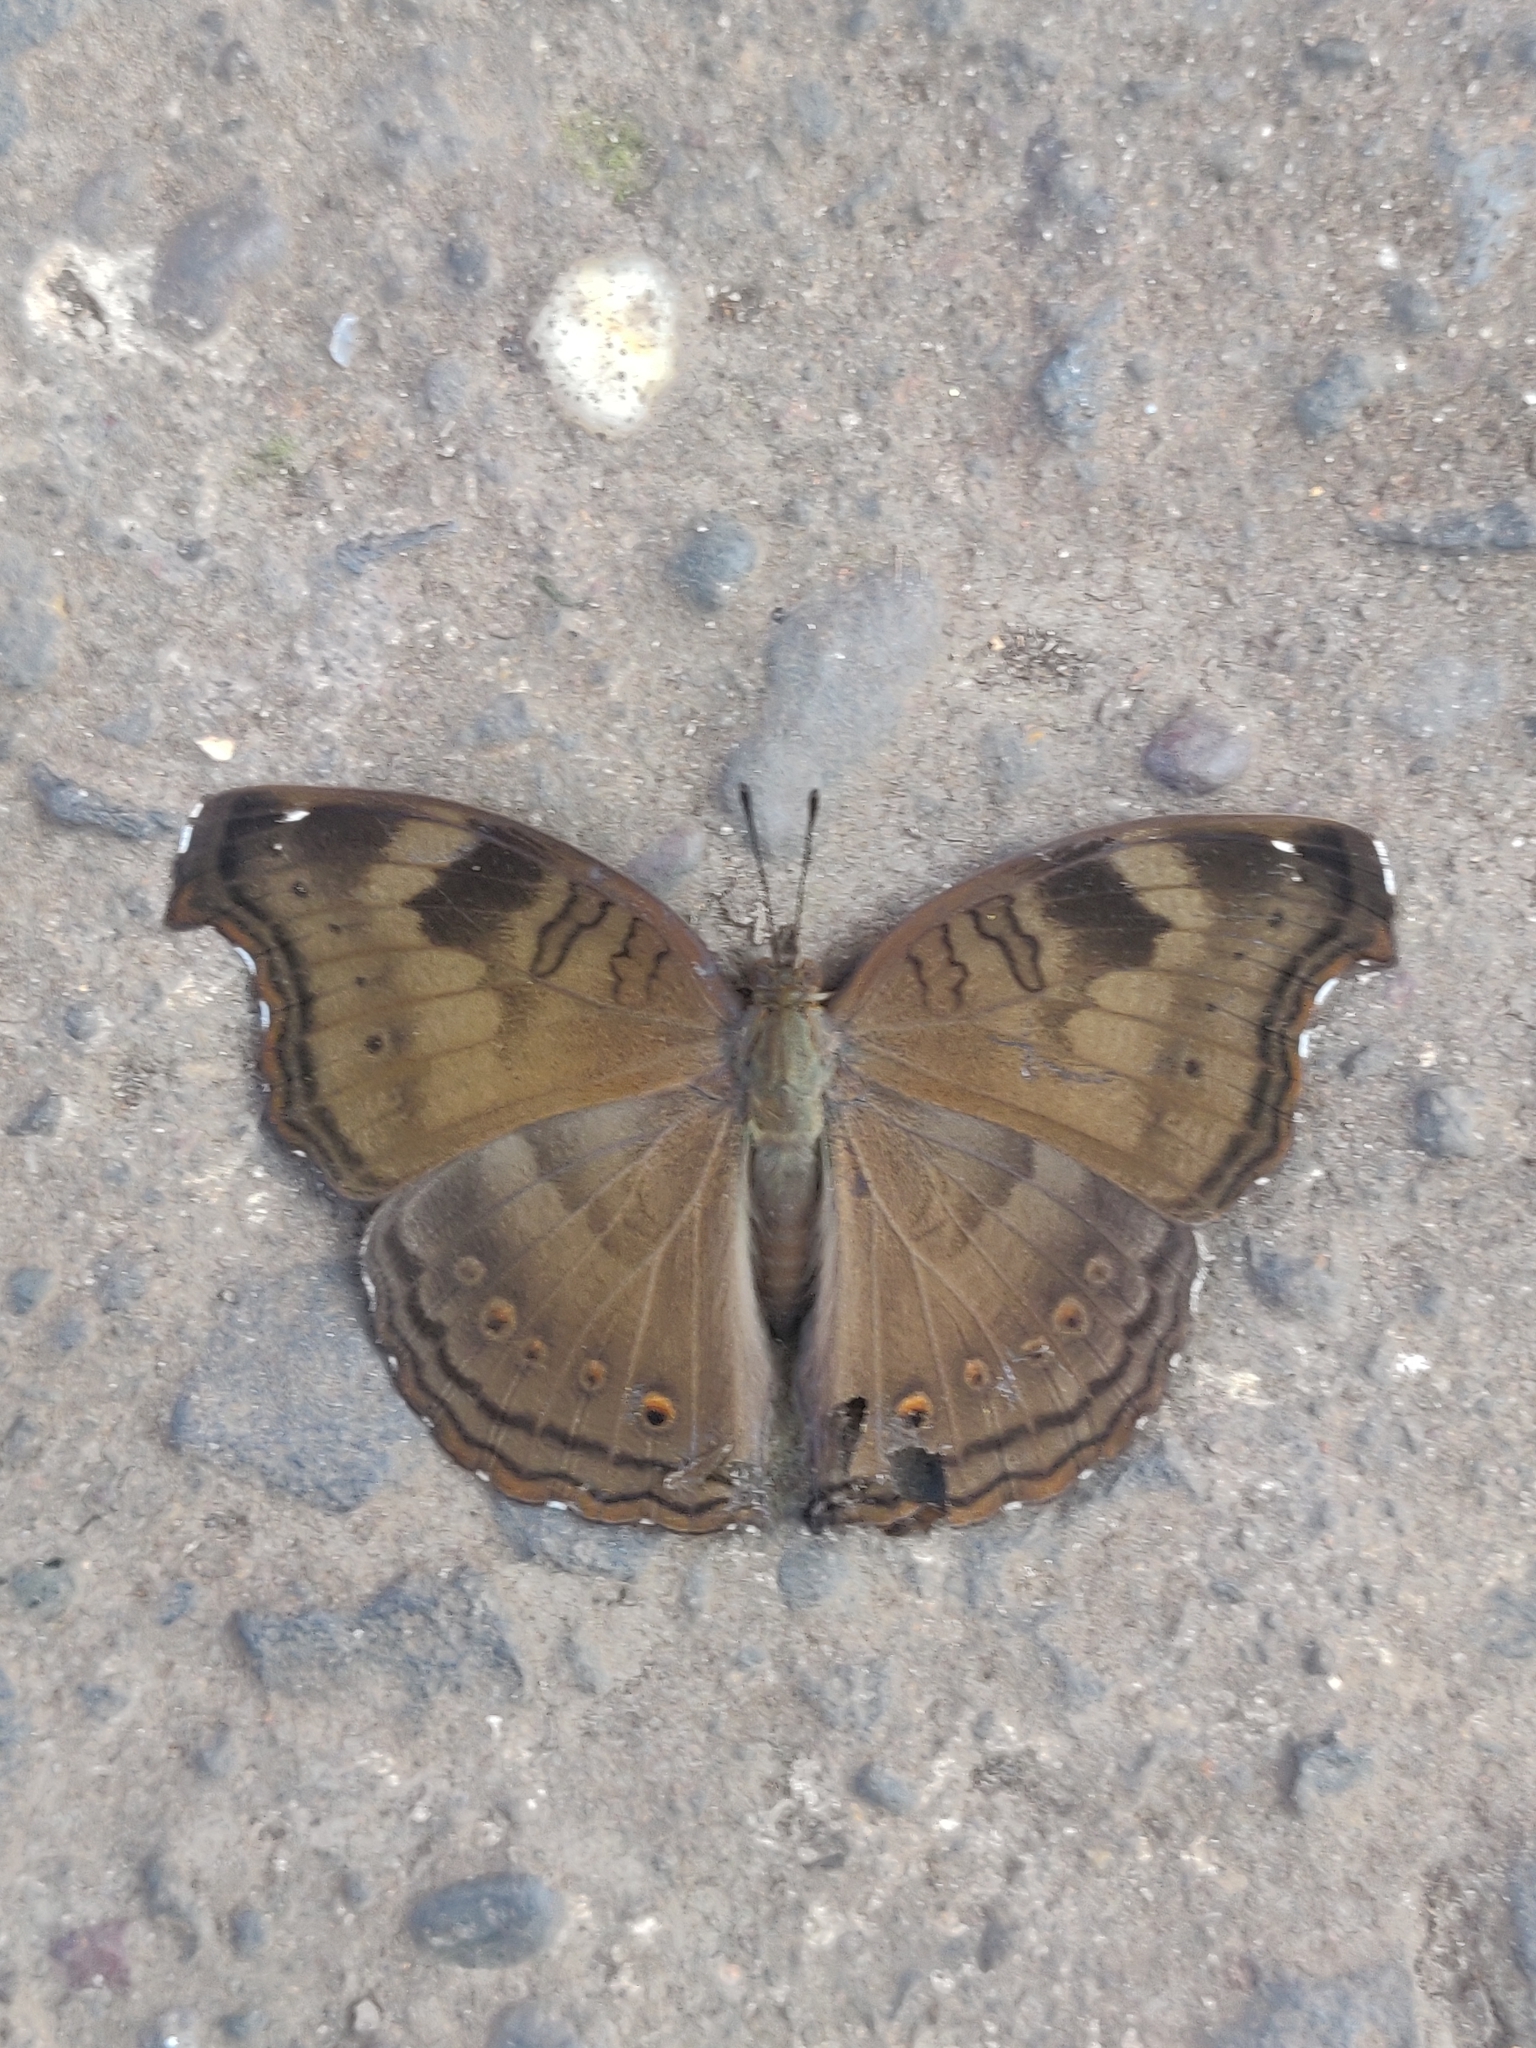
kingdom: Animalia
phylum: Arthropoda
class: Insecta
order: Lepidoptera
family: Nymphalidae
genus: Junonia
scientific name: Junonia iphita
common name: Chocolate pansy
